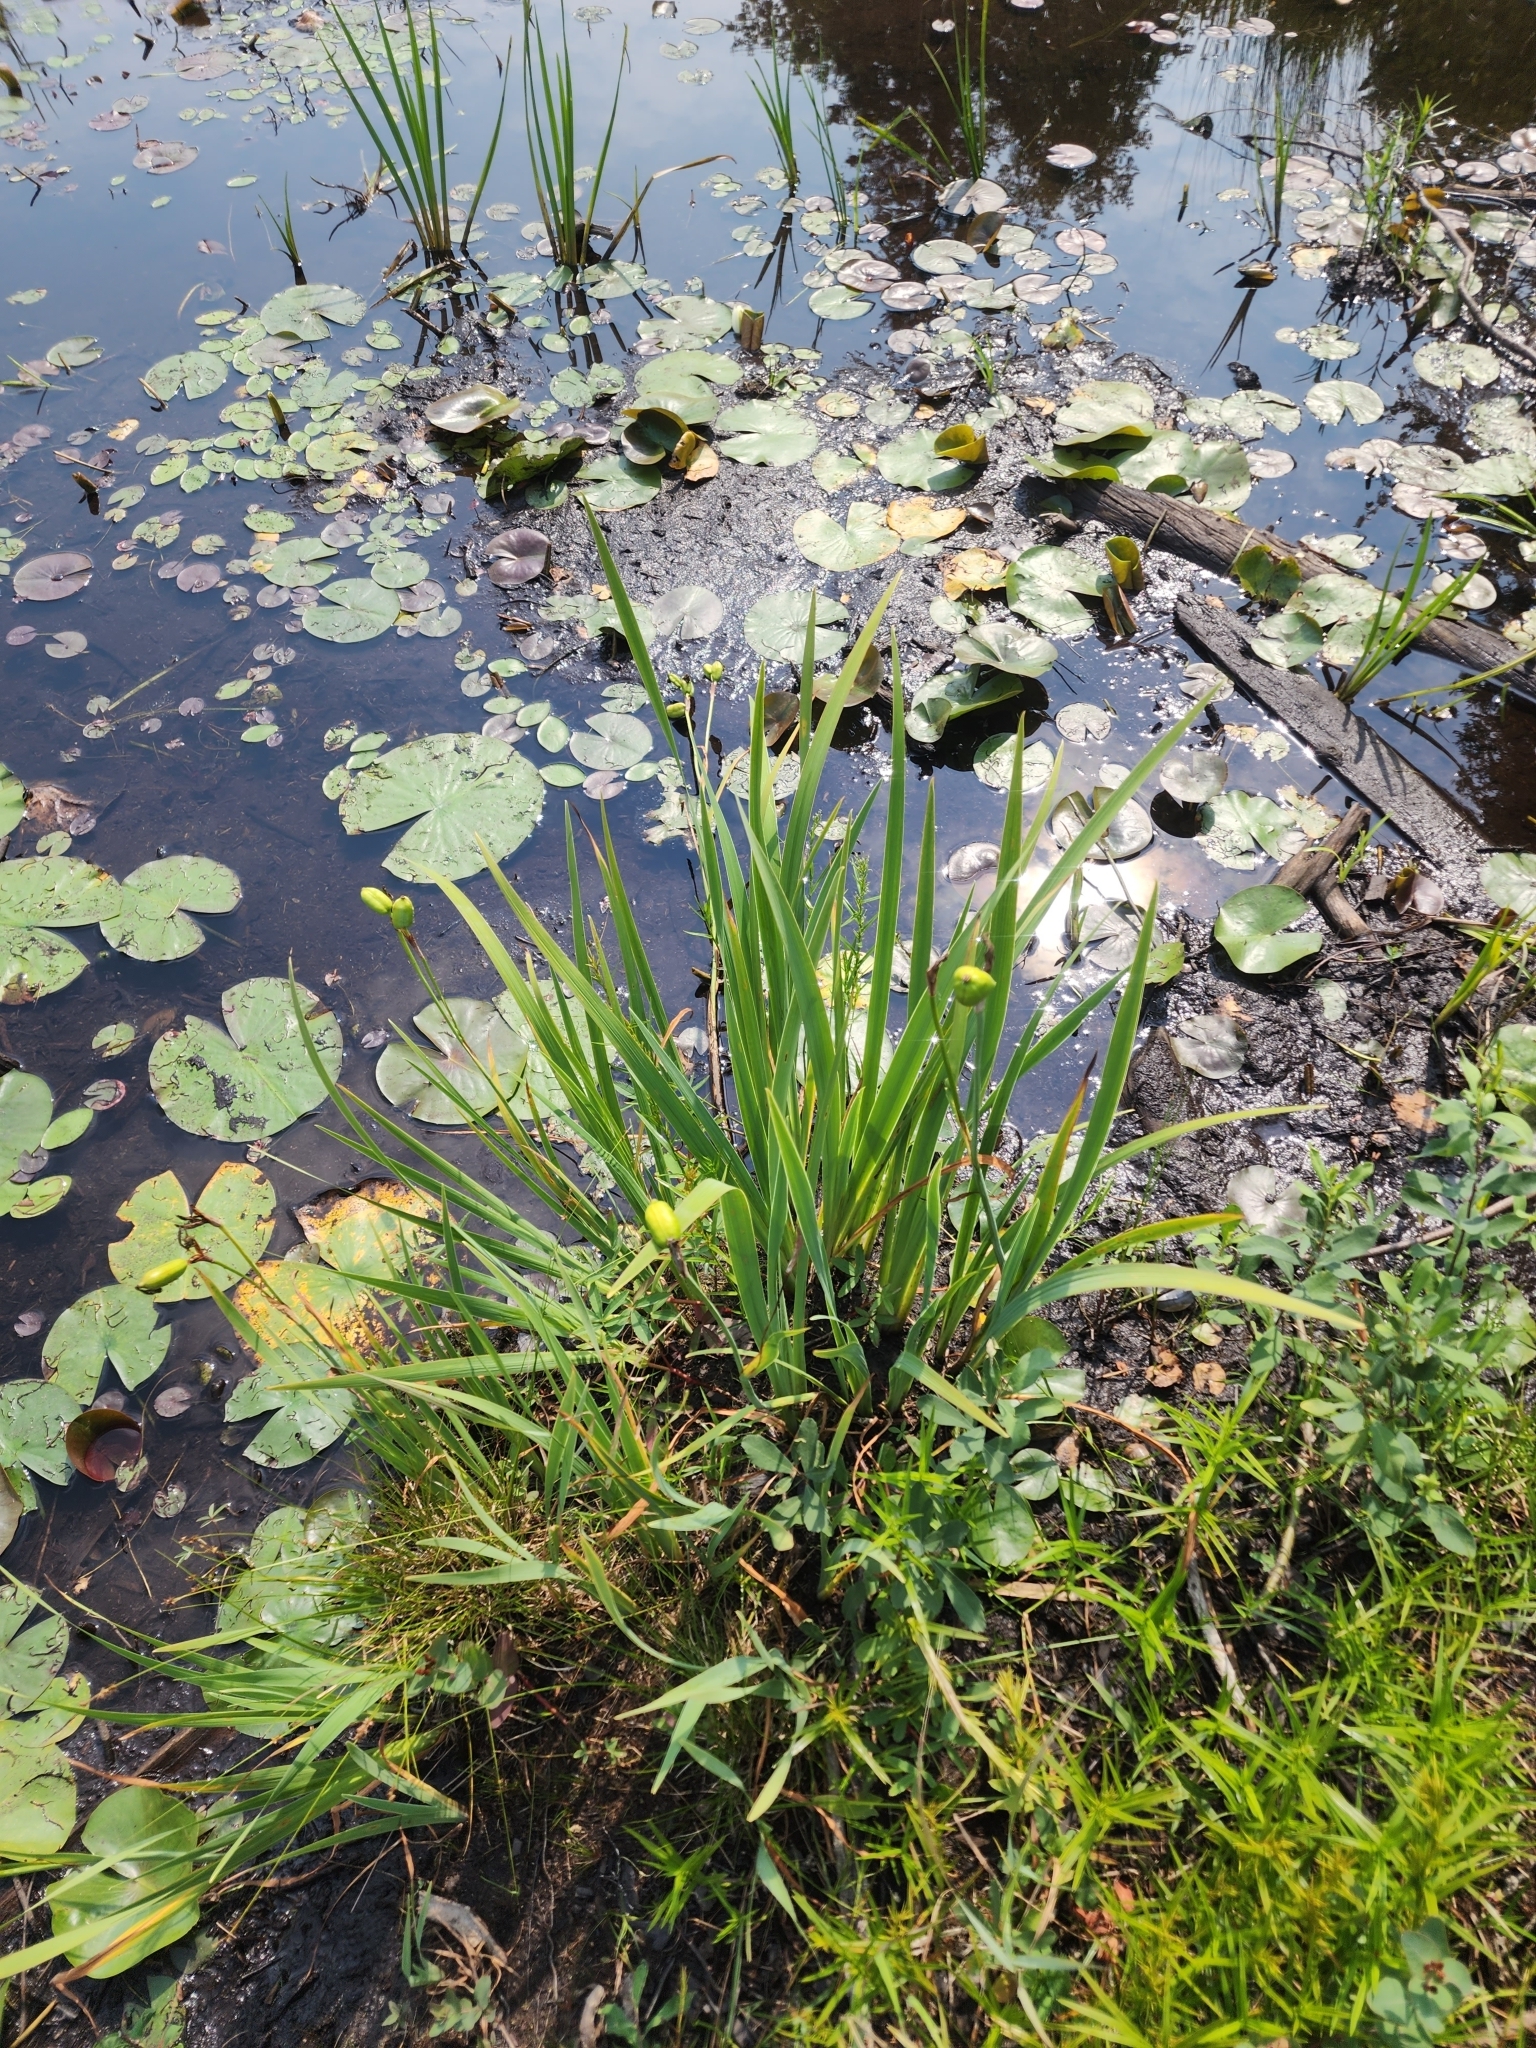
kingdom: Plantae
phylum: Tracheophyta
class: Liliopsida
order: Asparagales
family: Iridaceae
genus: Iris
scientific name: Iris versicolor
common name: Purple iris
